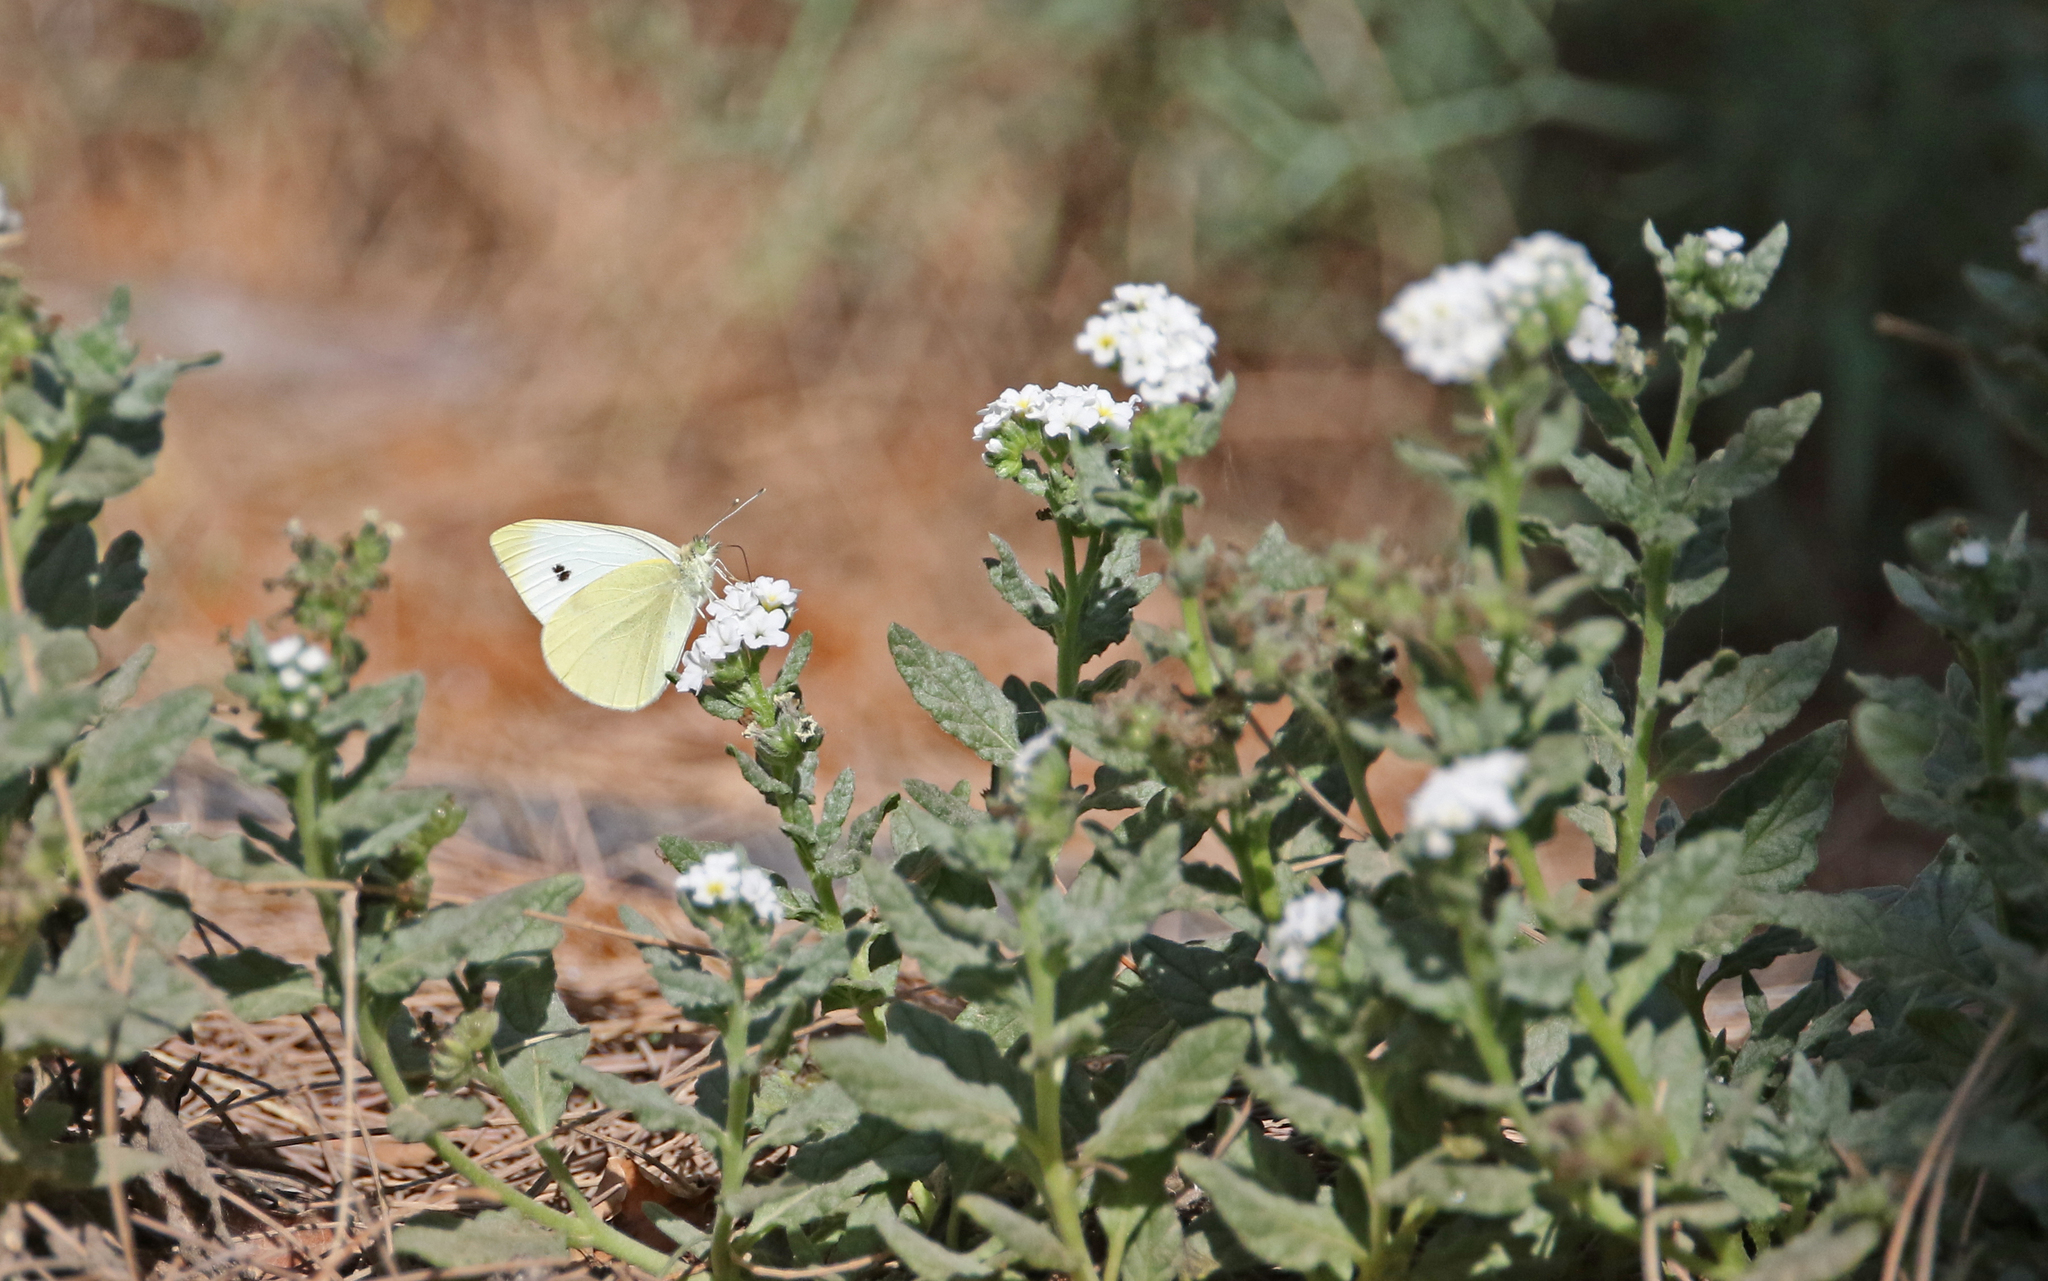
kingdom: Animalia
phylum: Arthropoda
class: Insecta
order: Lepidoptera
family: Pieridae
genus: Pieris
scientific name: Pieris rapae
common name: Small white
